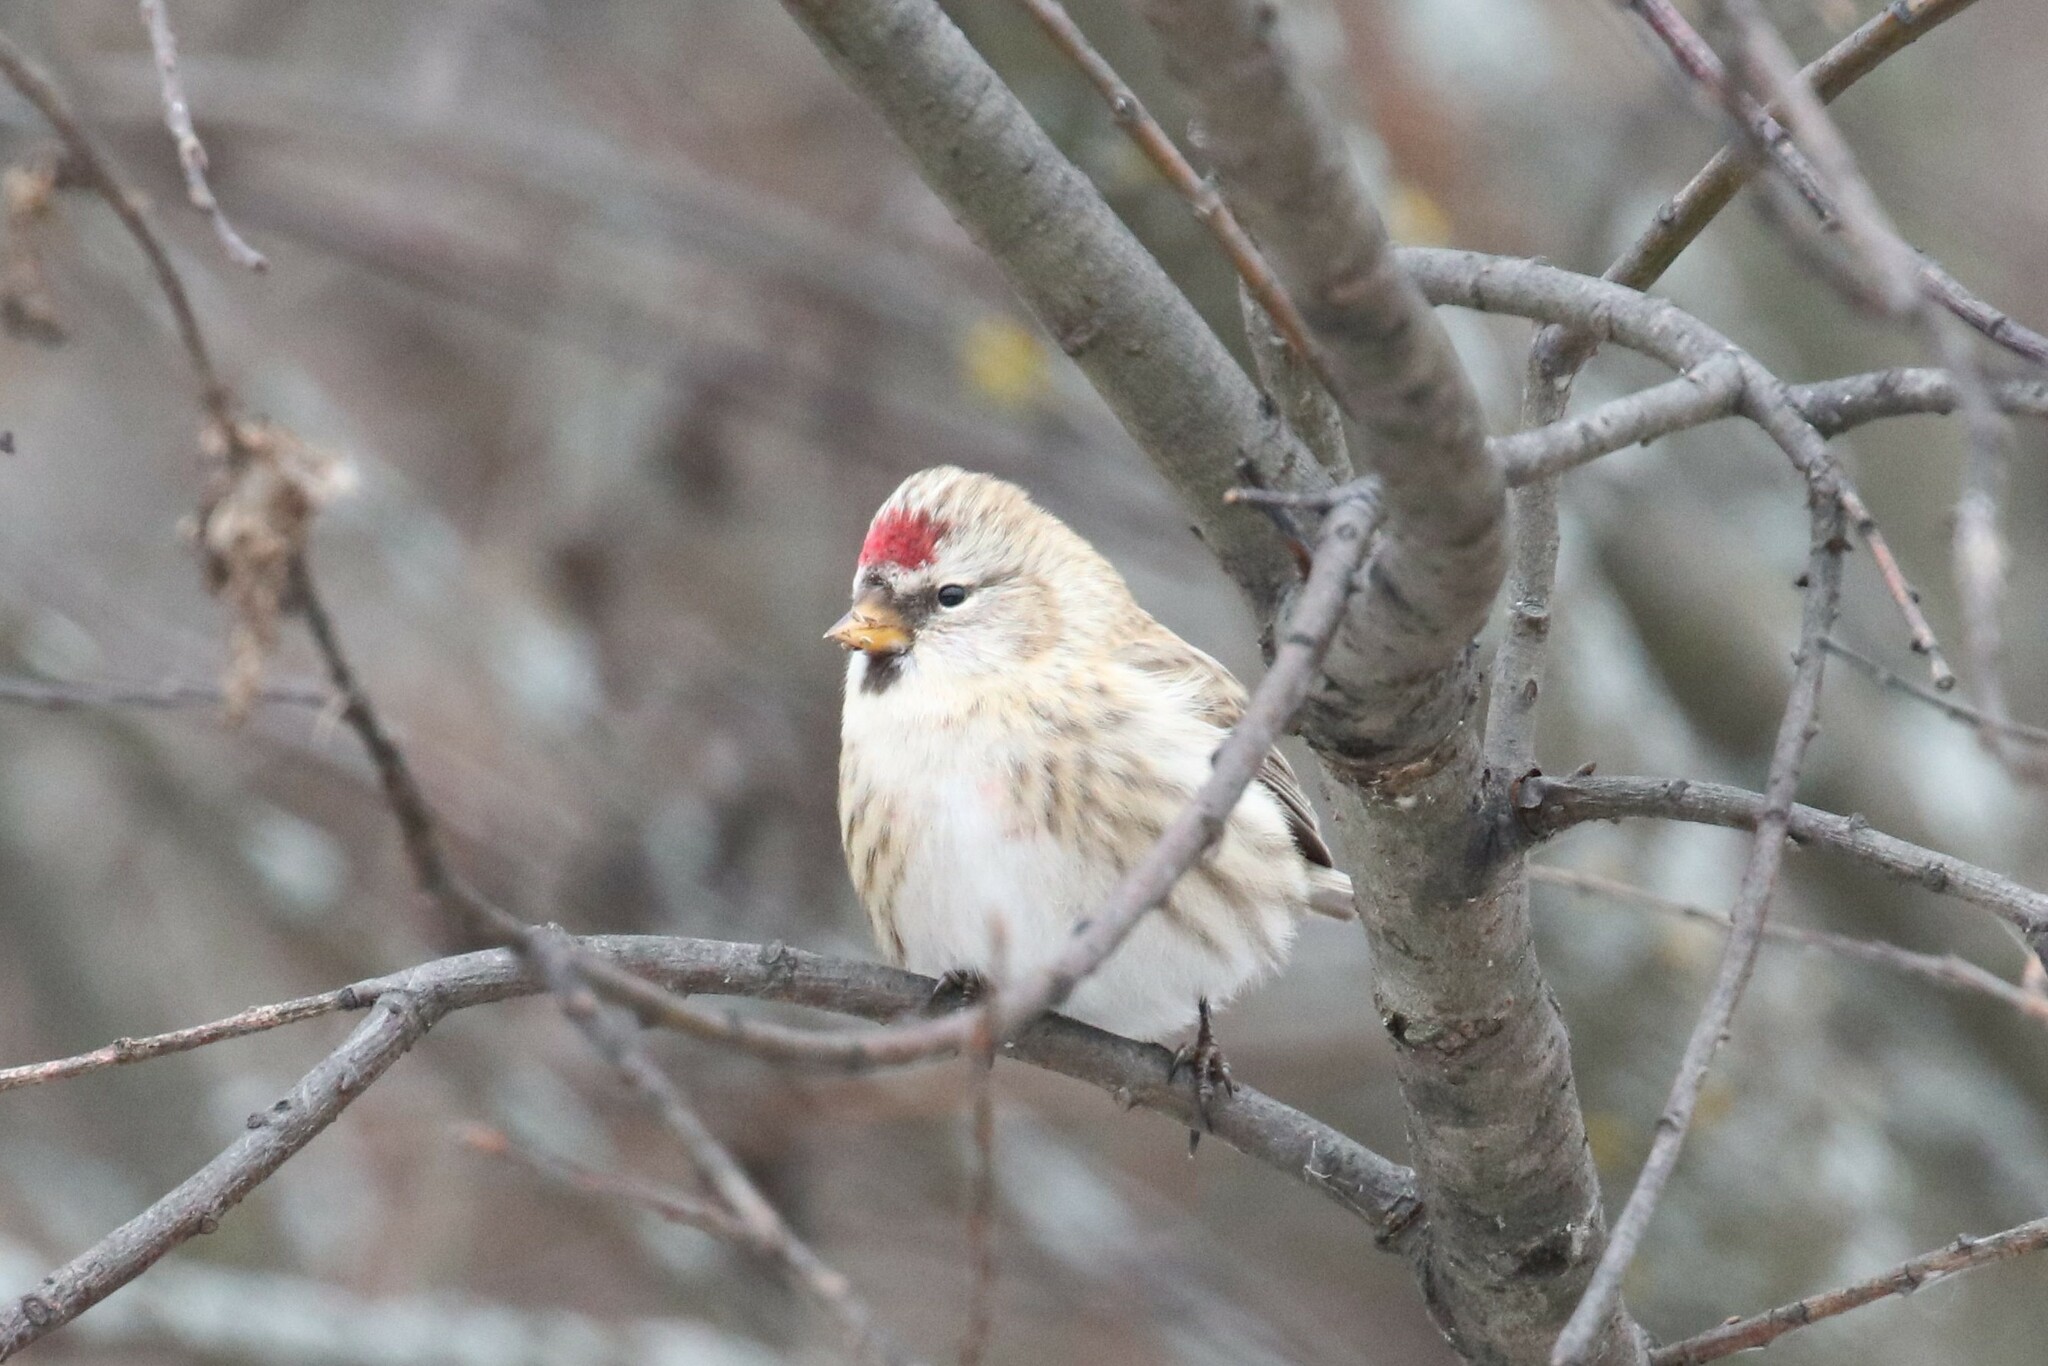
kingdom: Animalia
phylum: Chordata
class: Aves
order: Passeriformes
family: Fringillidae
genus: Acanthis
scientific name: Acanthis flammea
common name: Common redpoll
